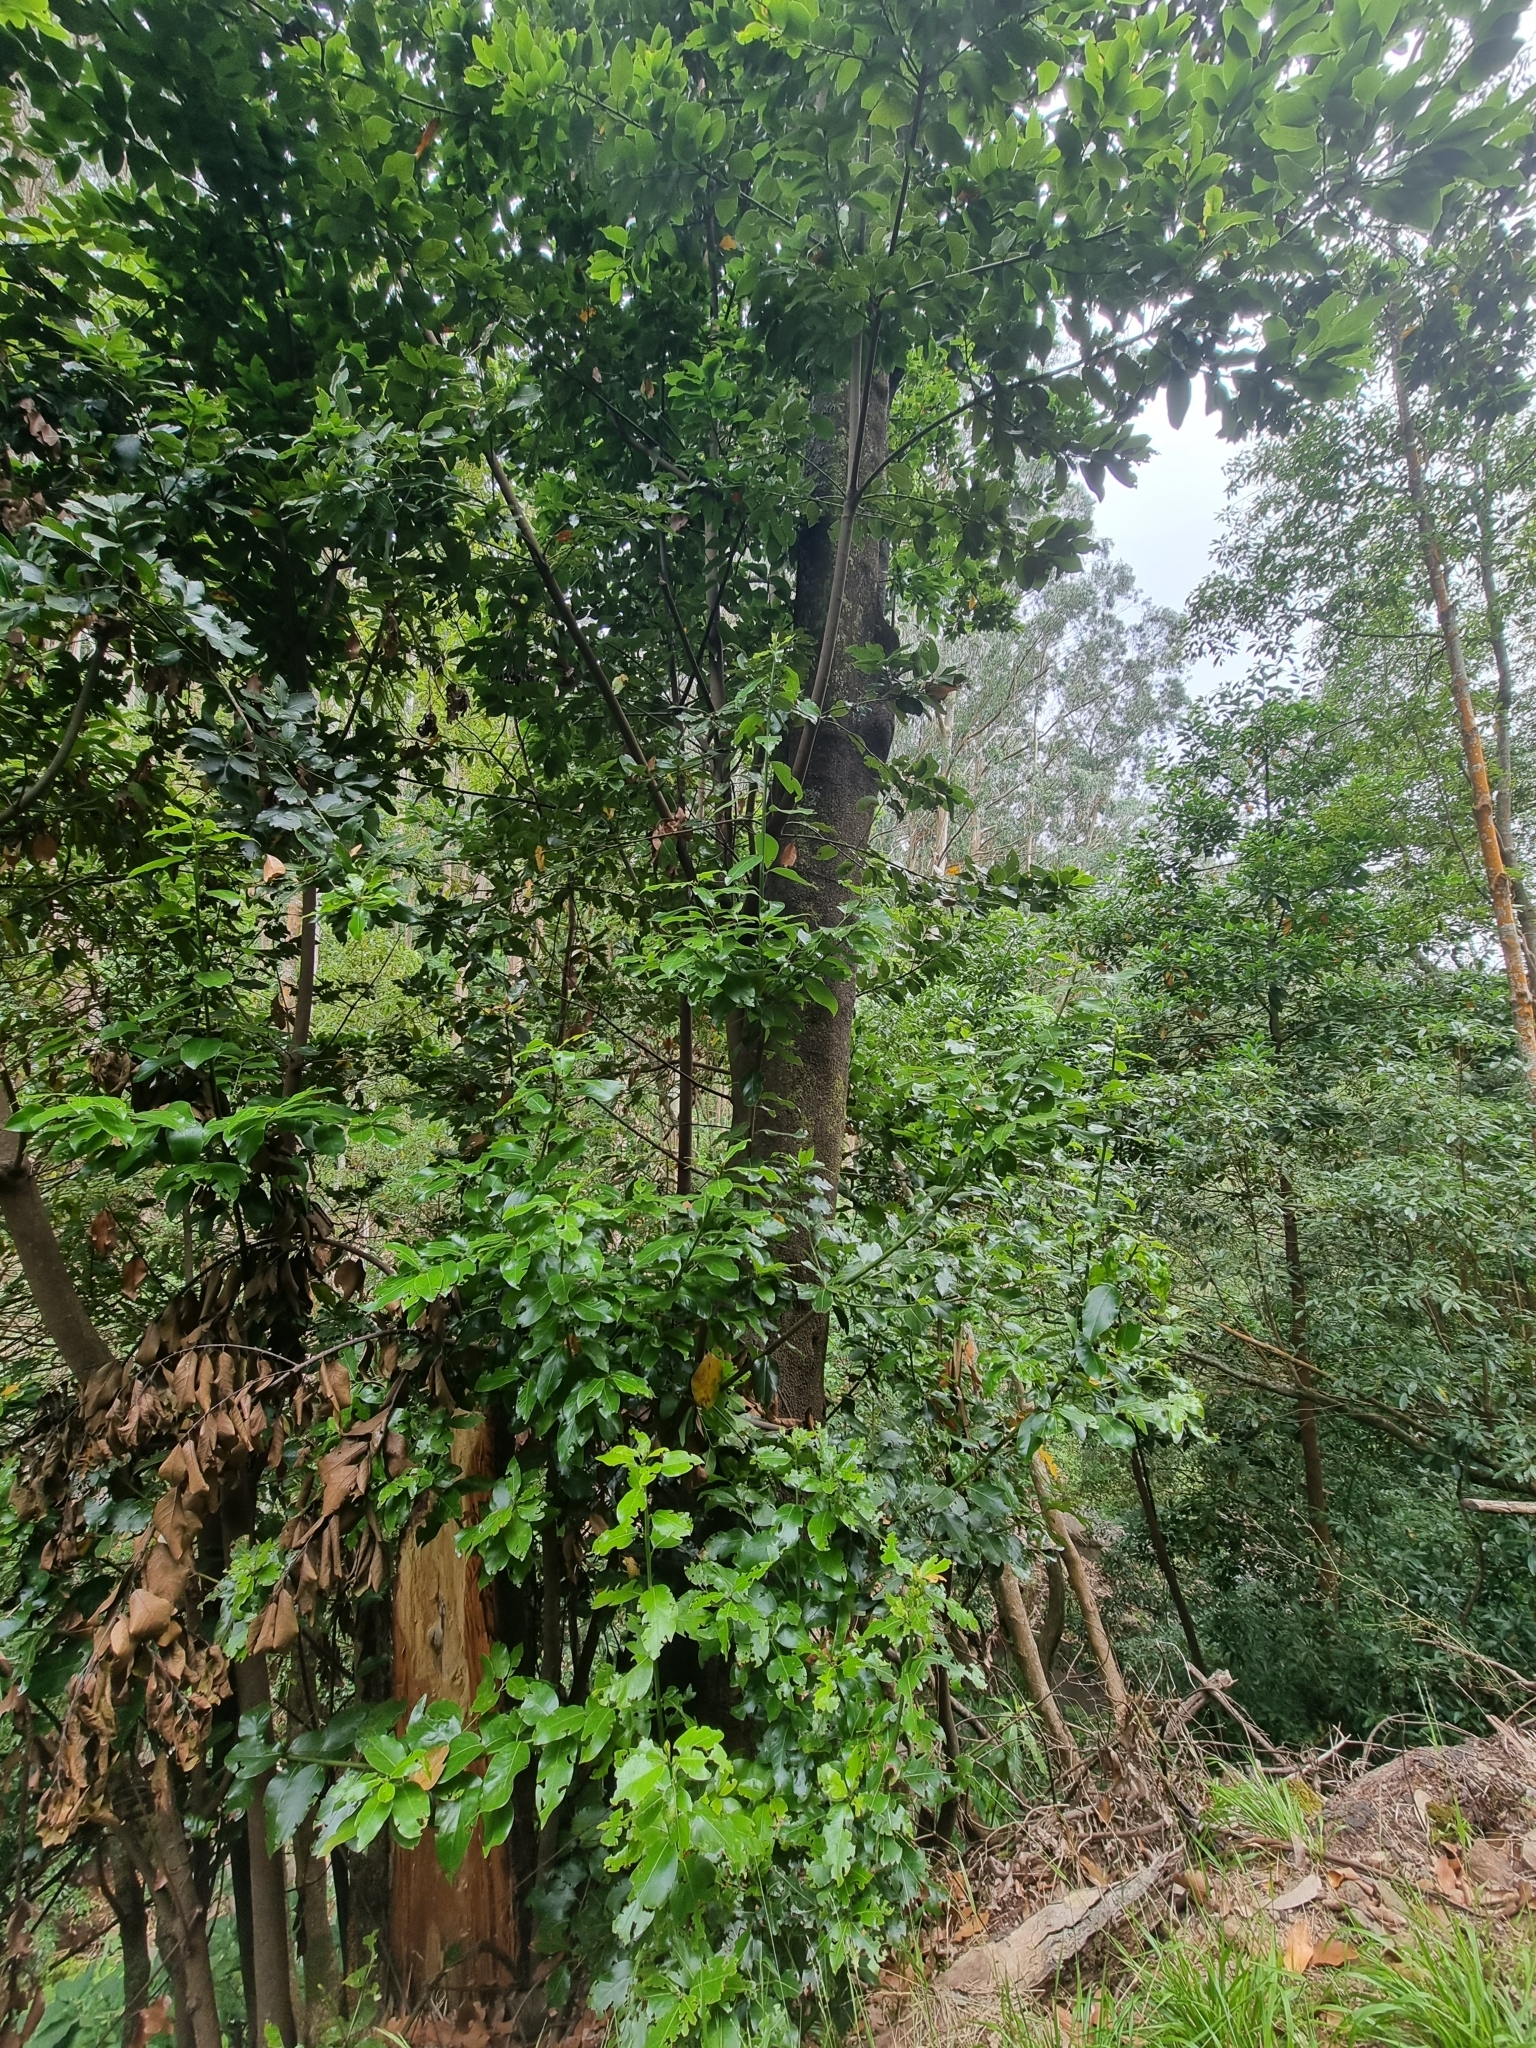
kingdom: Plantae
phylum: Tracheophyta
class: Magnoliopsida
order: Laurales
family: Lauraceae
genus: Laurus
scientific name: Laurus novocanariensis
